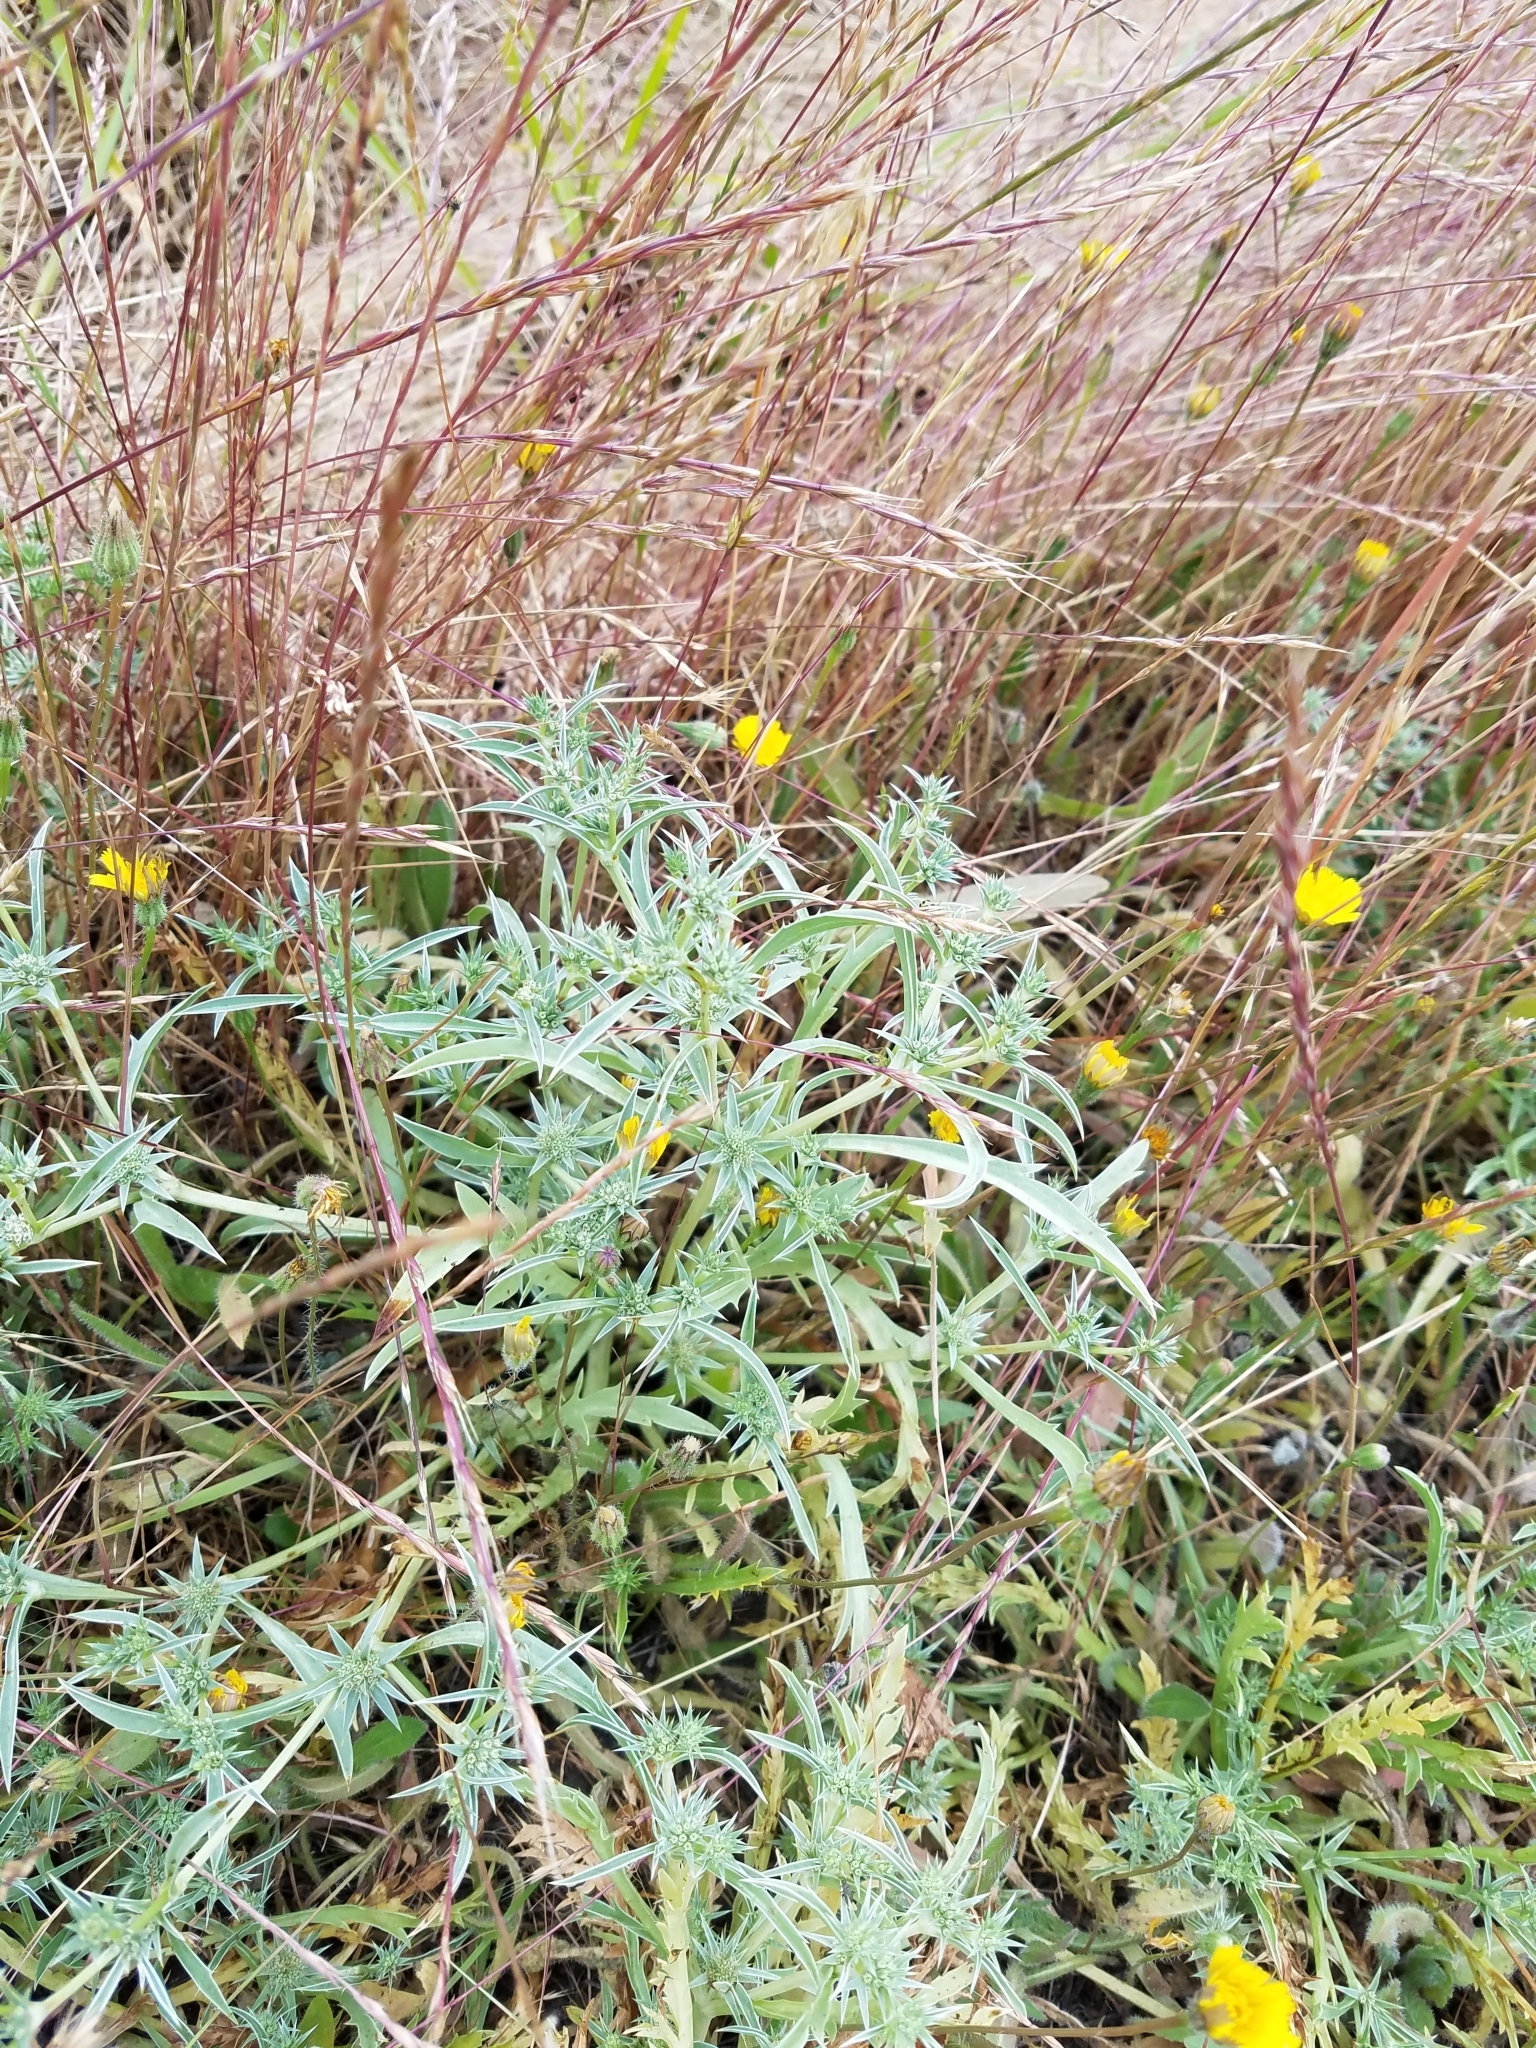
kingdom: Plantae
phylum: Tracheophyta
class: Magnoliopsida
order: Apiales
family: Apiaceae
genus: Eryngium
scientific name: Eryngium aristulatum
